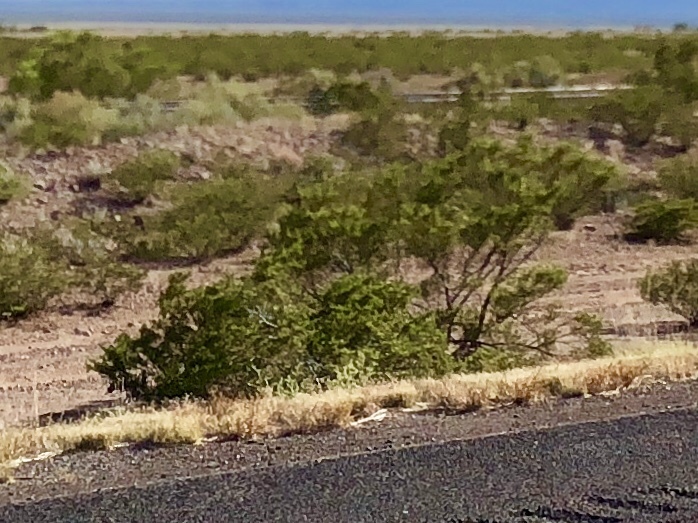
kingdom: Plantae
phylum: Tracheophyta
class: Magnoliopsida
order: Zygophyllales
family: Zygophyllaceae
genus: Larrea
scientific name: Larrea tridentata
